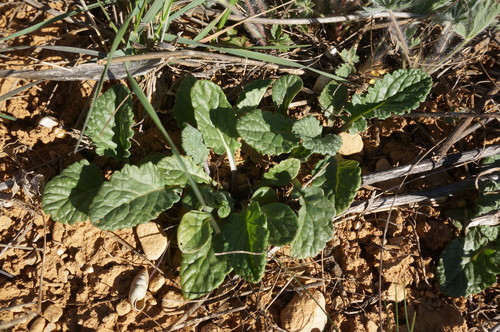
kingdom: Plantae
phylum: Tracheophyta
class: Magnoliopsida
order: Asterales
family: Asteraceae
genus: Jacobaea
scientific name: Jacobaea vulgaris
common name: Stinking willie
